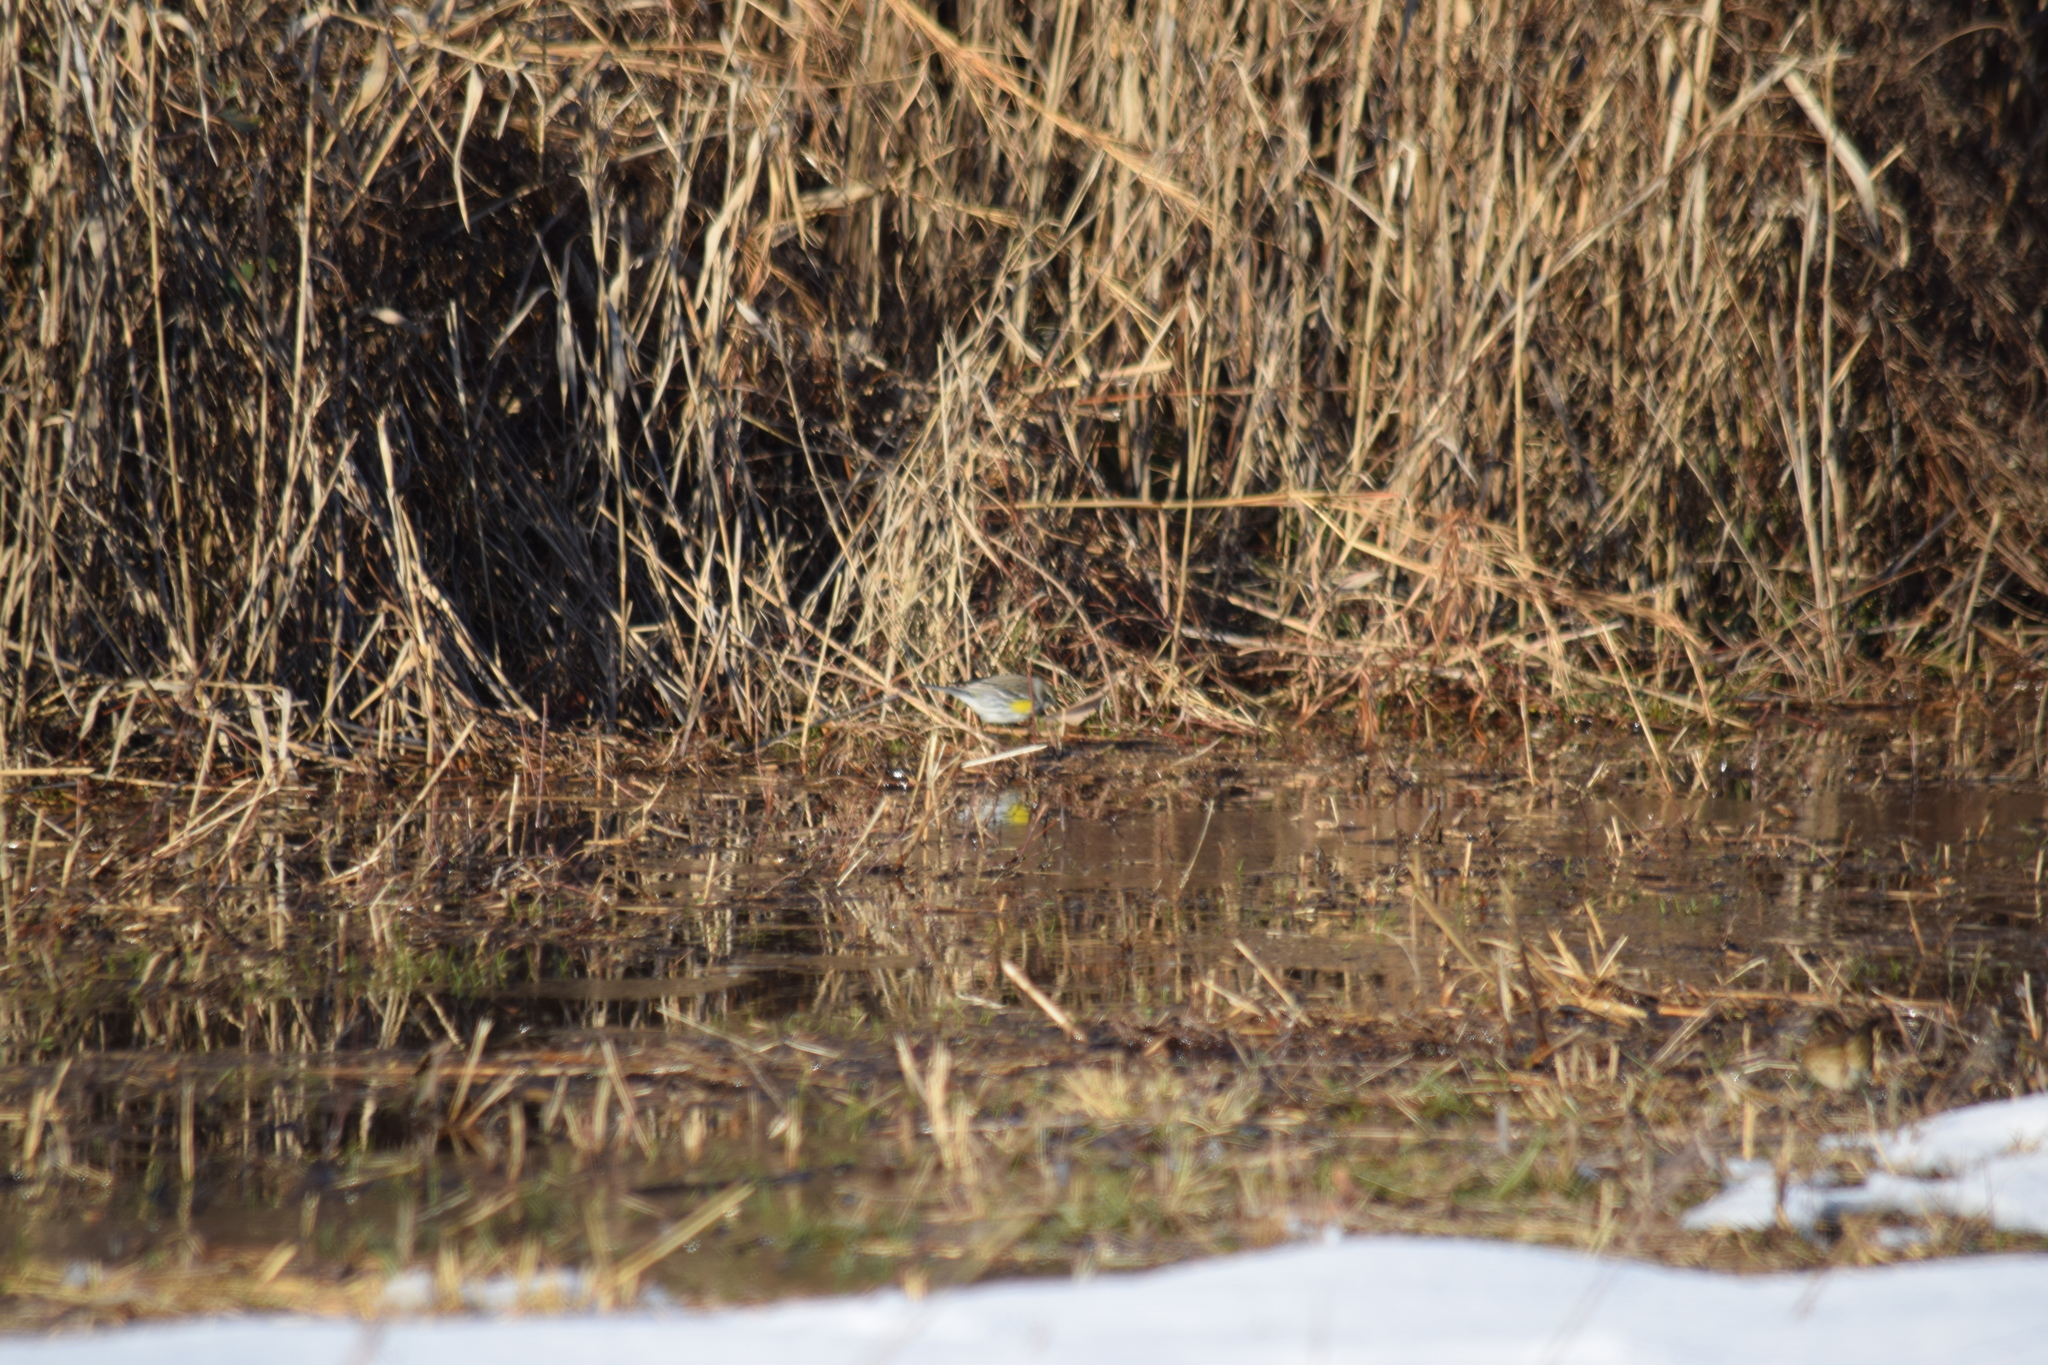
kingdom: Animalia
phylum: Chordata
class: Aves
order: Passeriformes
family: Parulidae
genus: Setophaga
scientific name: Setophaga coronata
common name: Myrtle warbler
